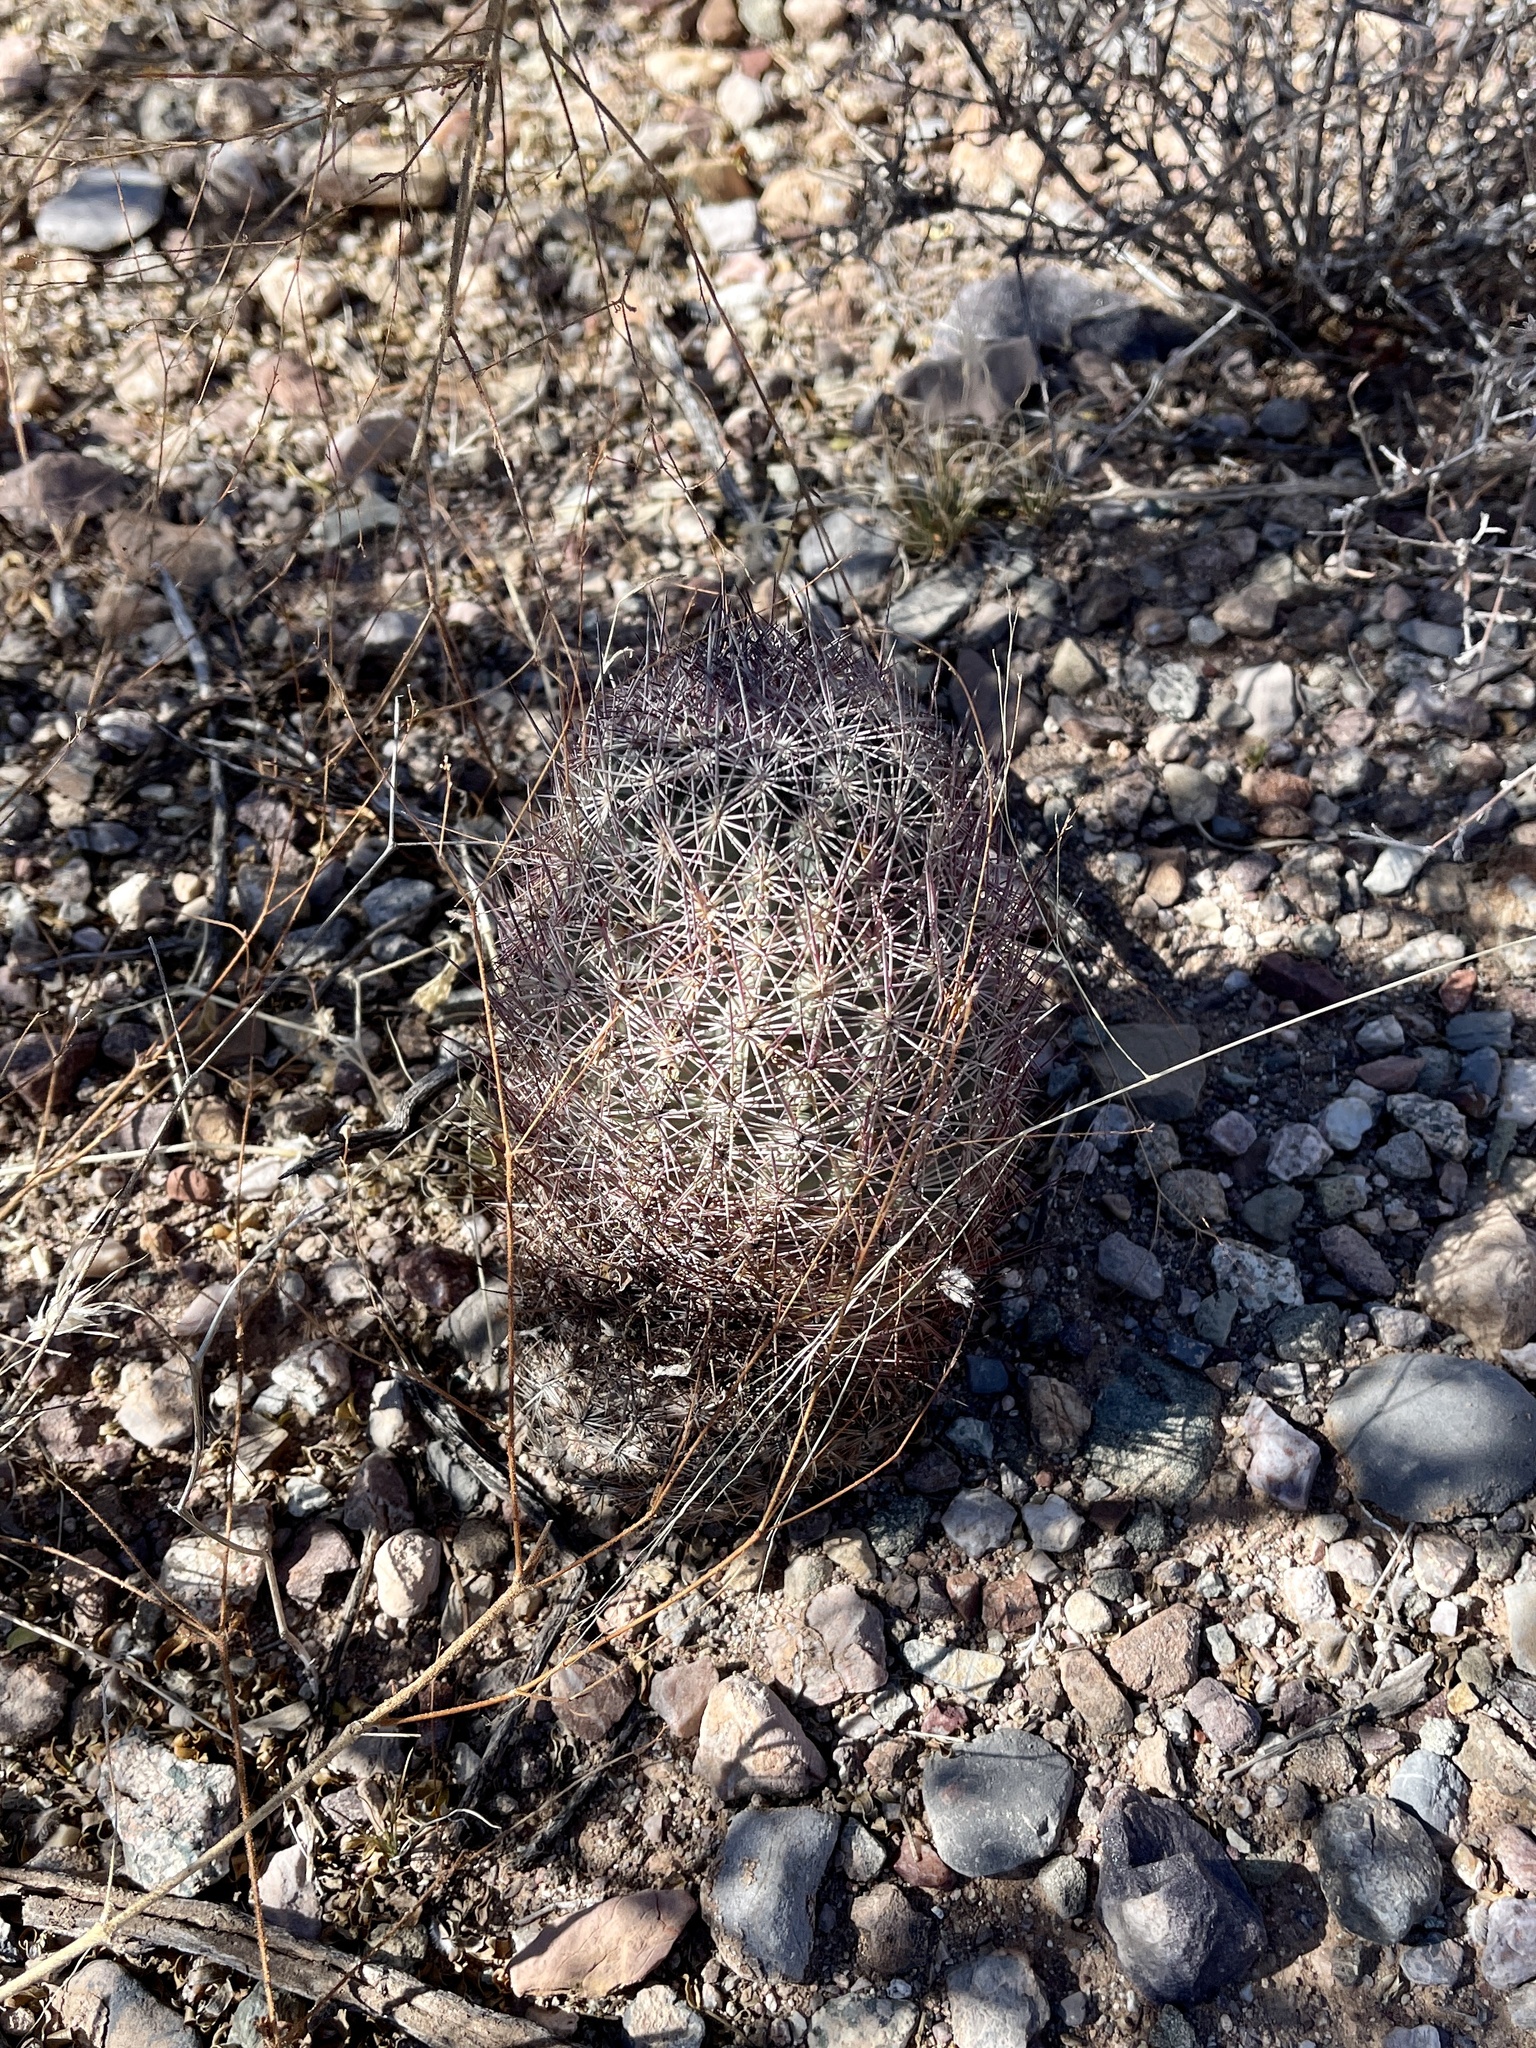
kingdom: Plantae
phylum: Tracheophyta
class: Magnoliopsida
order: Caryophyllales
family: Cactaceae
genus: Sclerocactus
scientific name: Sclerocactus johnsonii
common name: Eight-spine fishhook cactus
